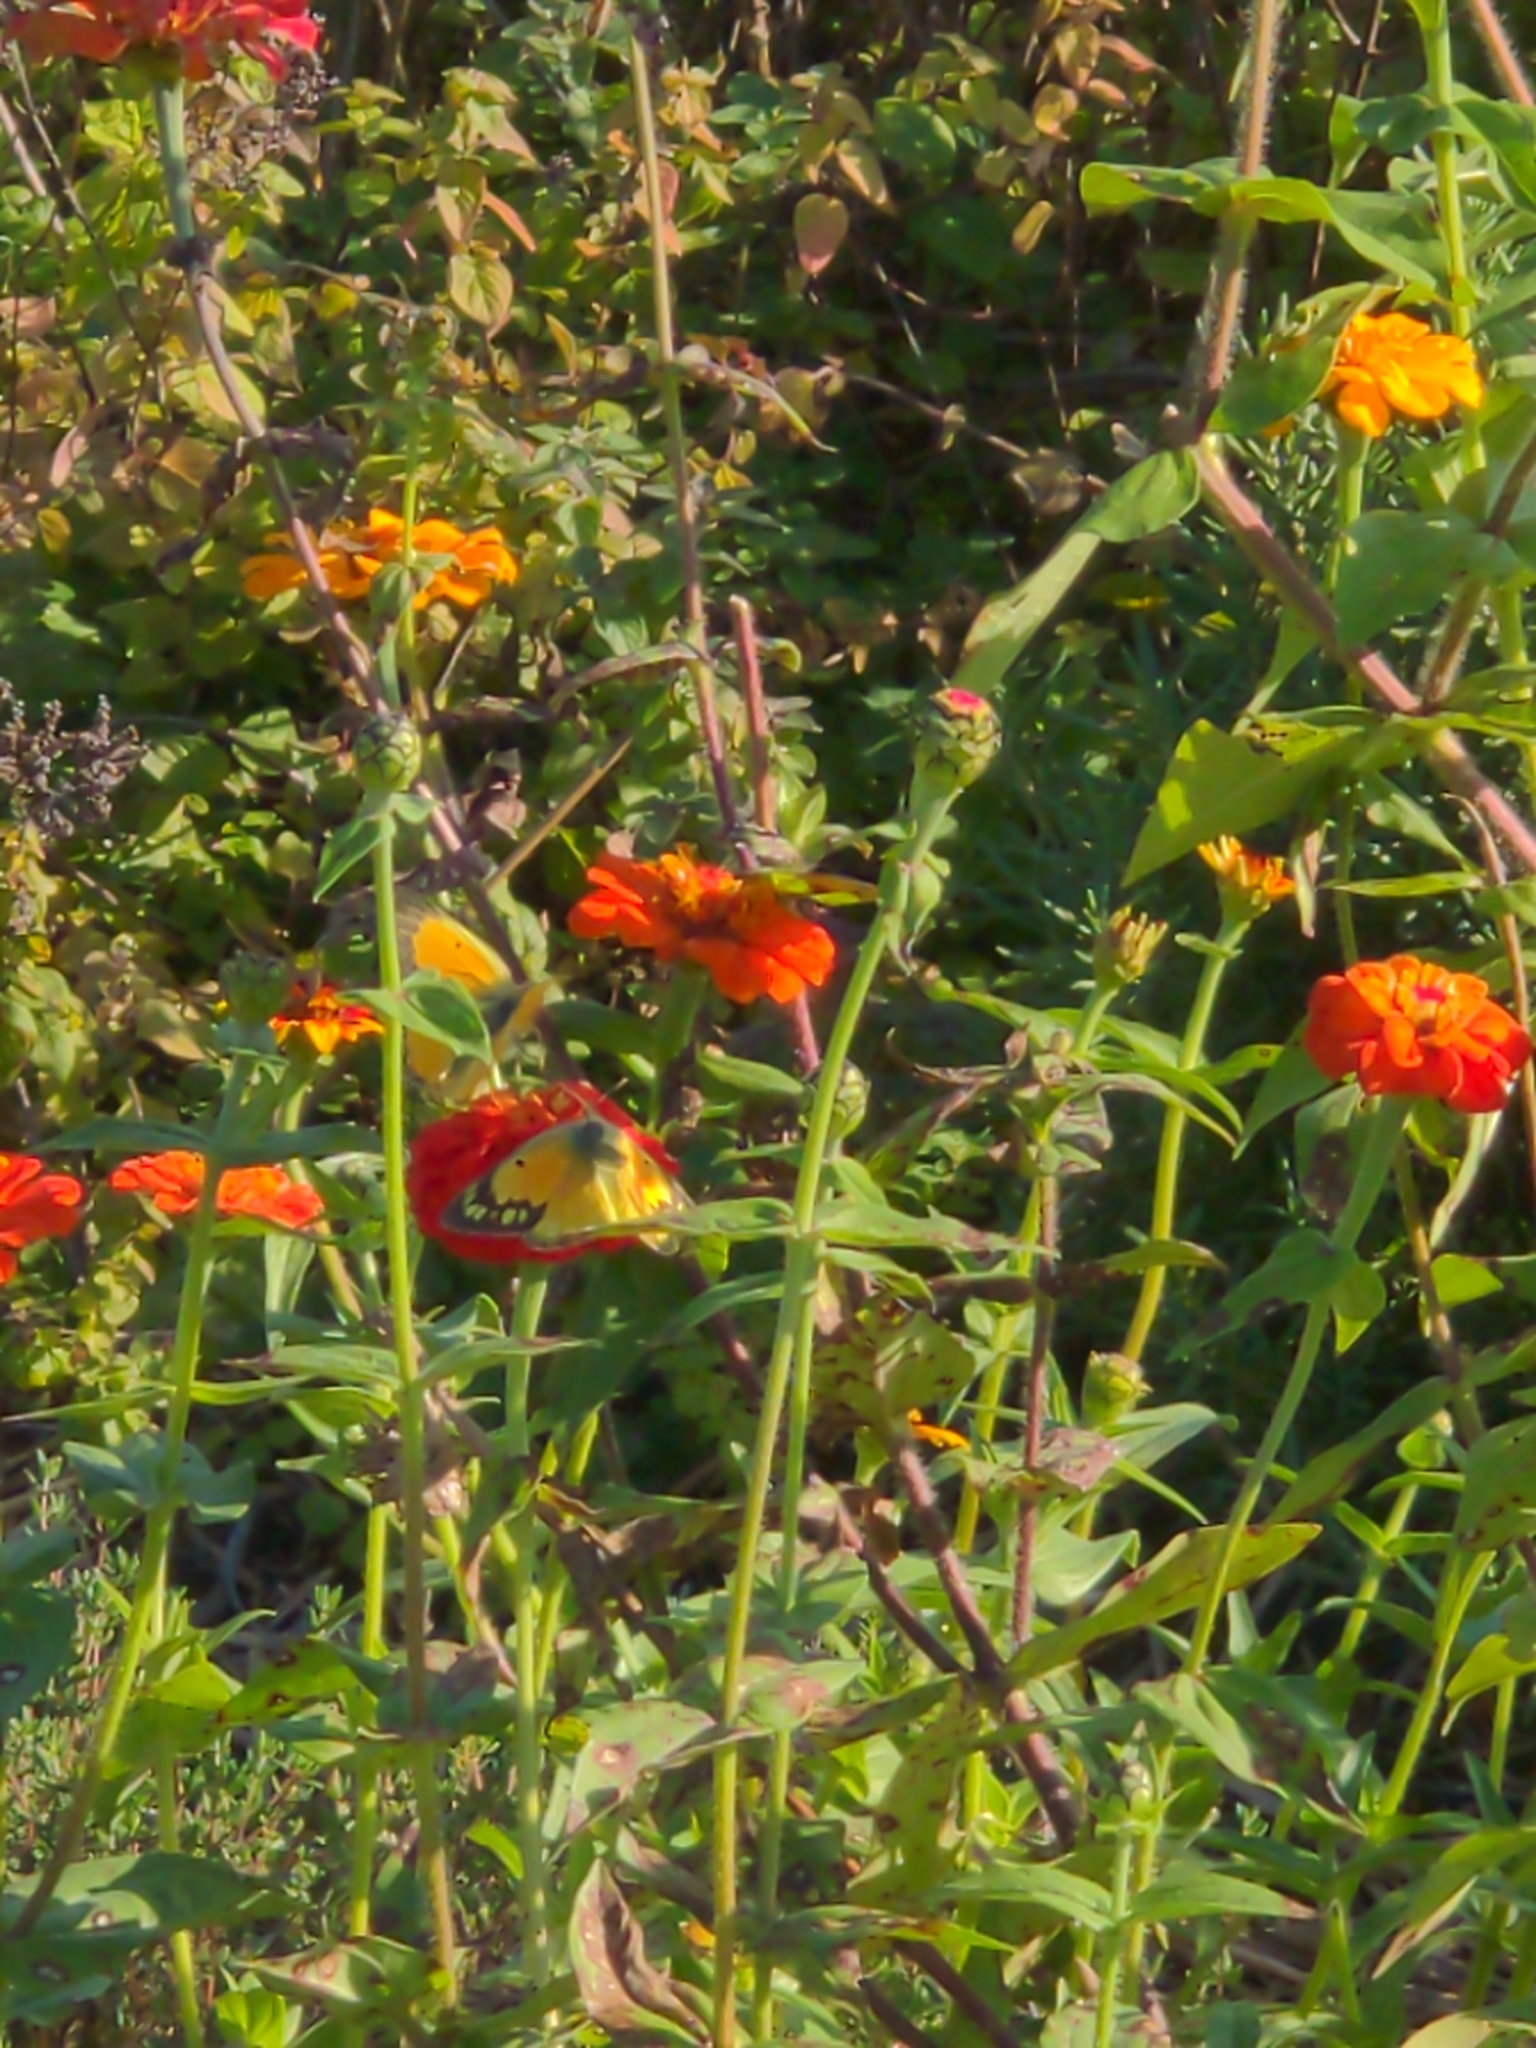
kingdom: Animalia
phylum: Arthropoda
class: Insecta
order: Lepidoptera
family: Pieridae
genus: Colias
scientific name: Colias eurytheme
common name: Alfalfa butterfly
